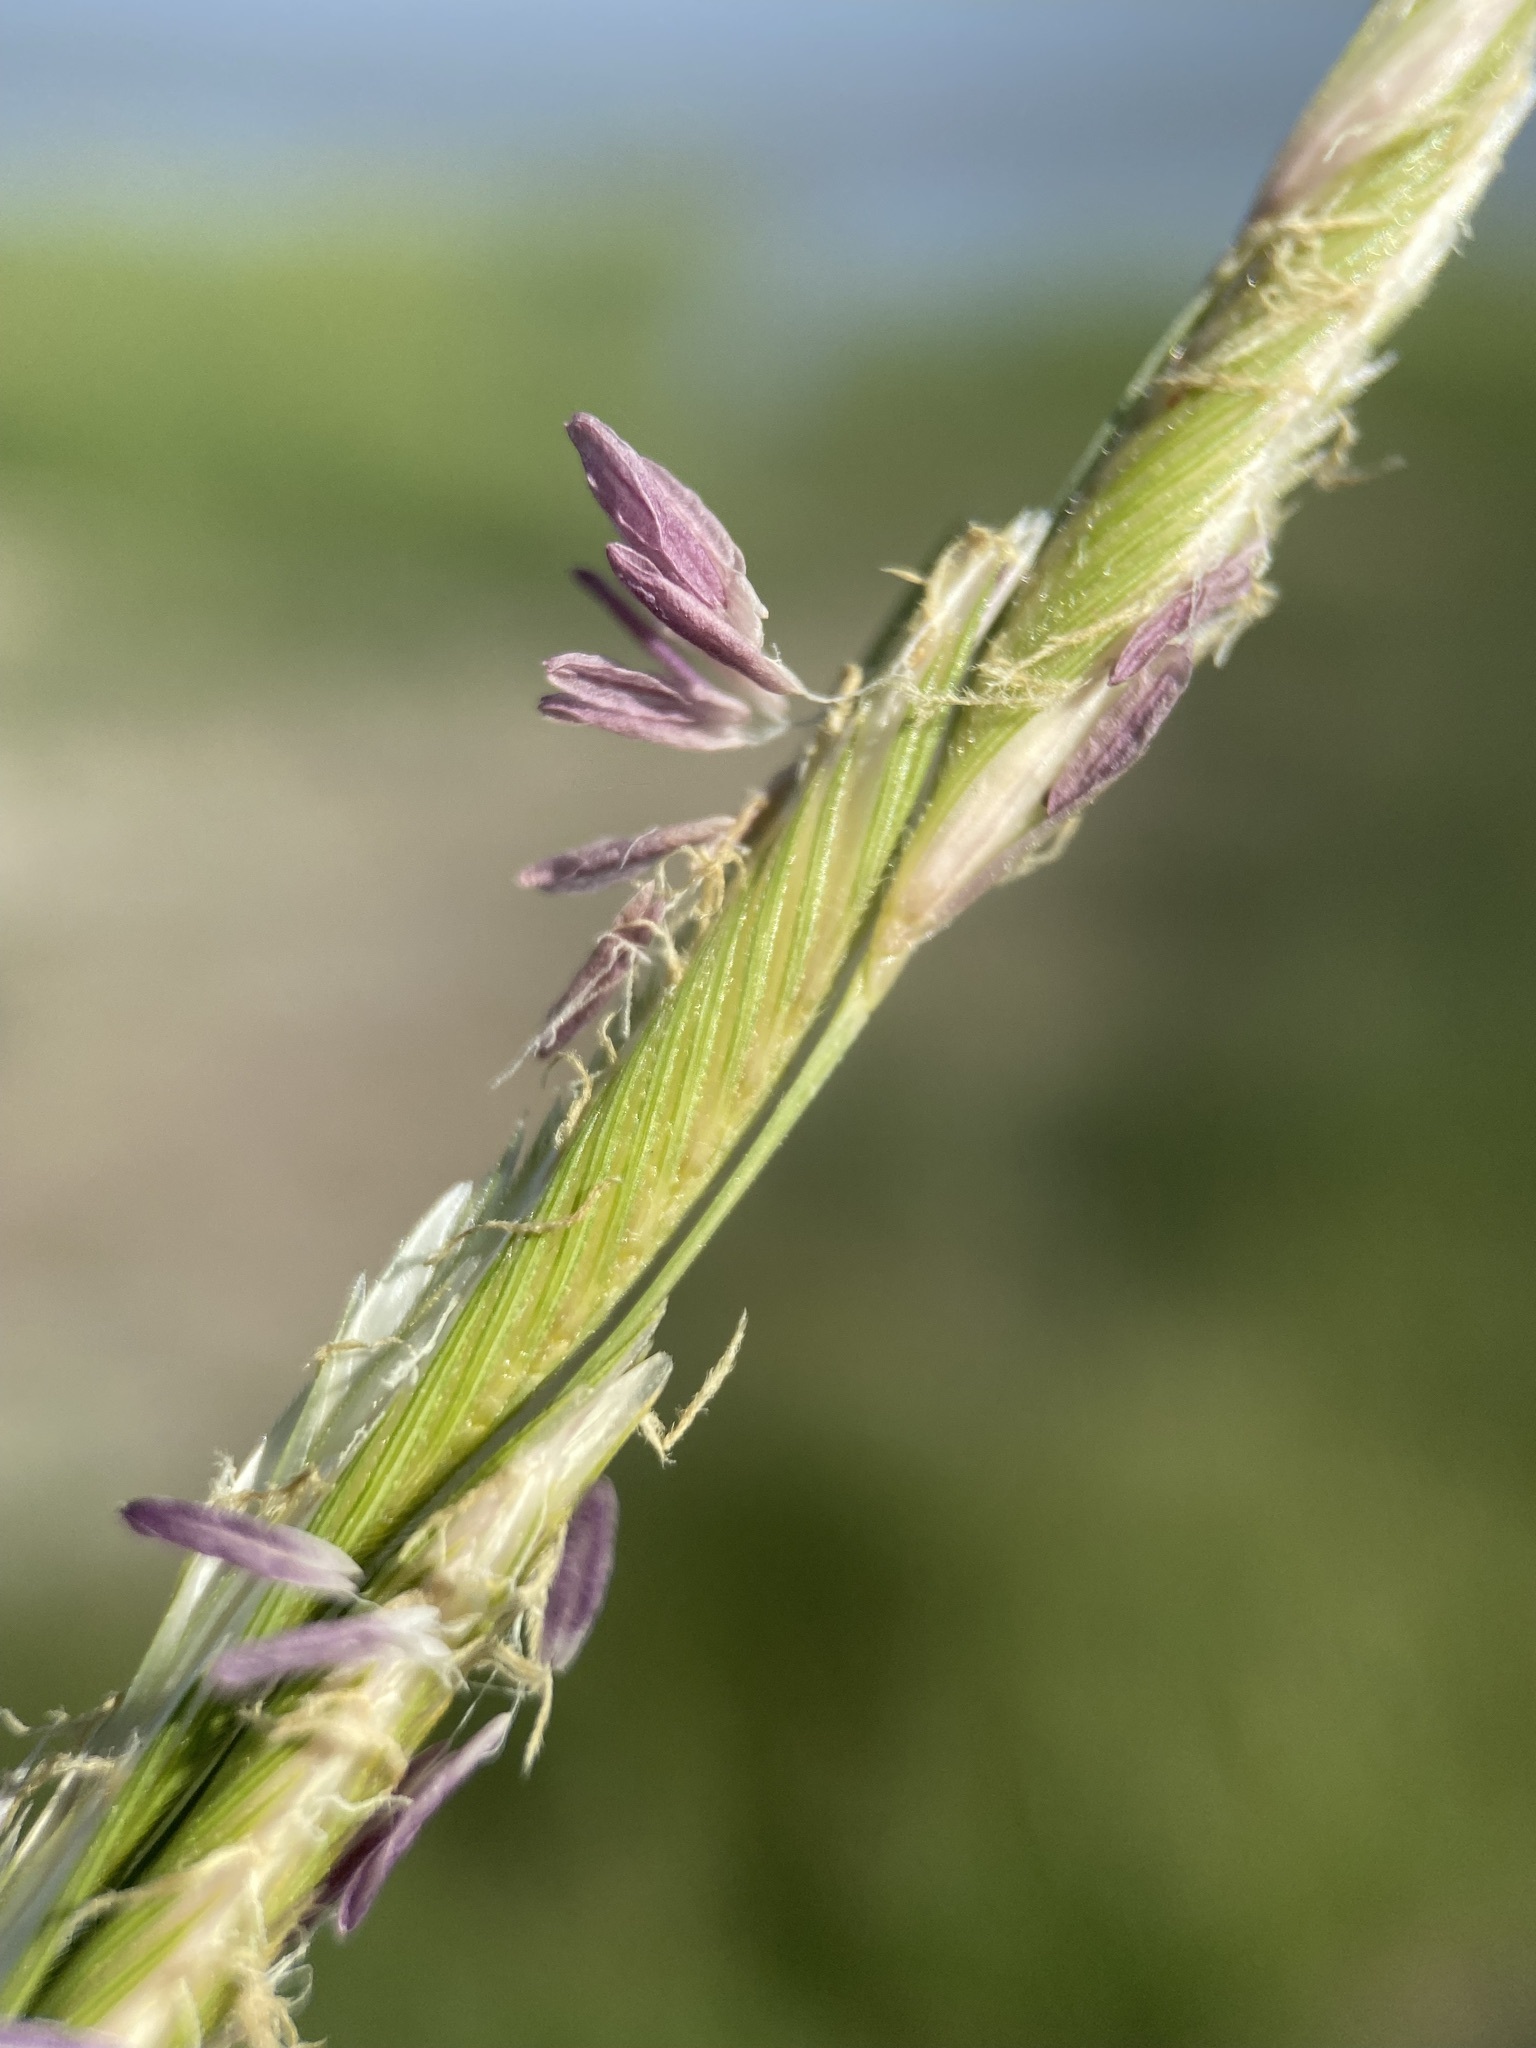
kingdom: Plantae
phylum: Tracheophyta
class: Liliopsida
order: Poales
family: Poaceae
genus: Sporobolus
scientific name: Sporobolus hookerianus
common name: Alkali cordgrass
